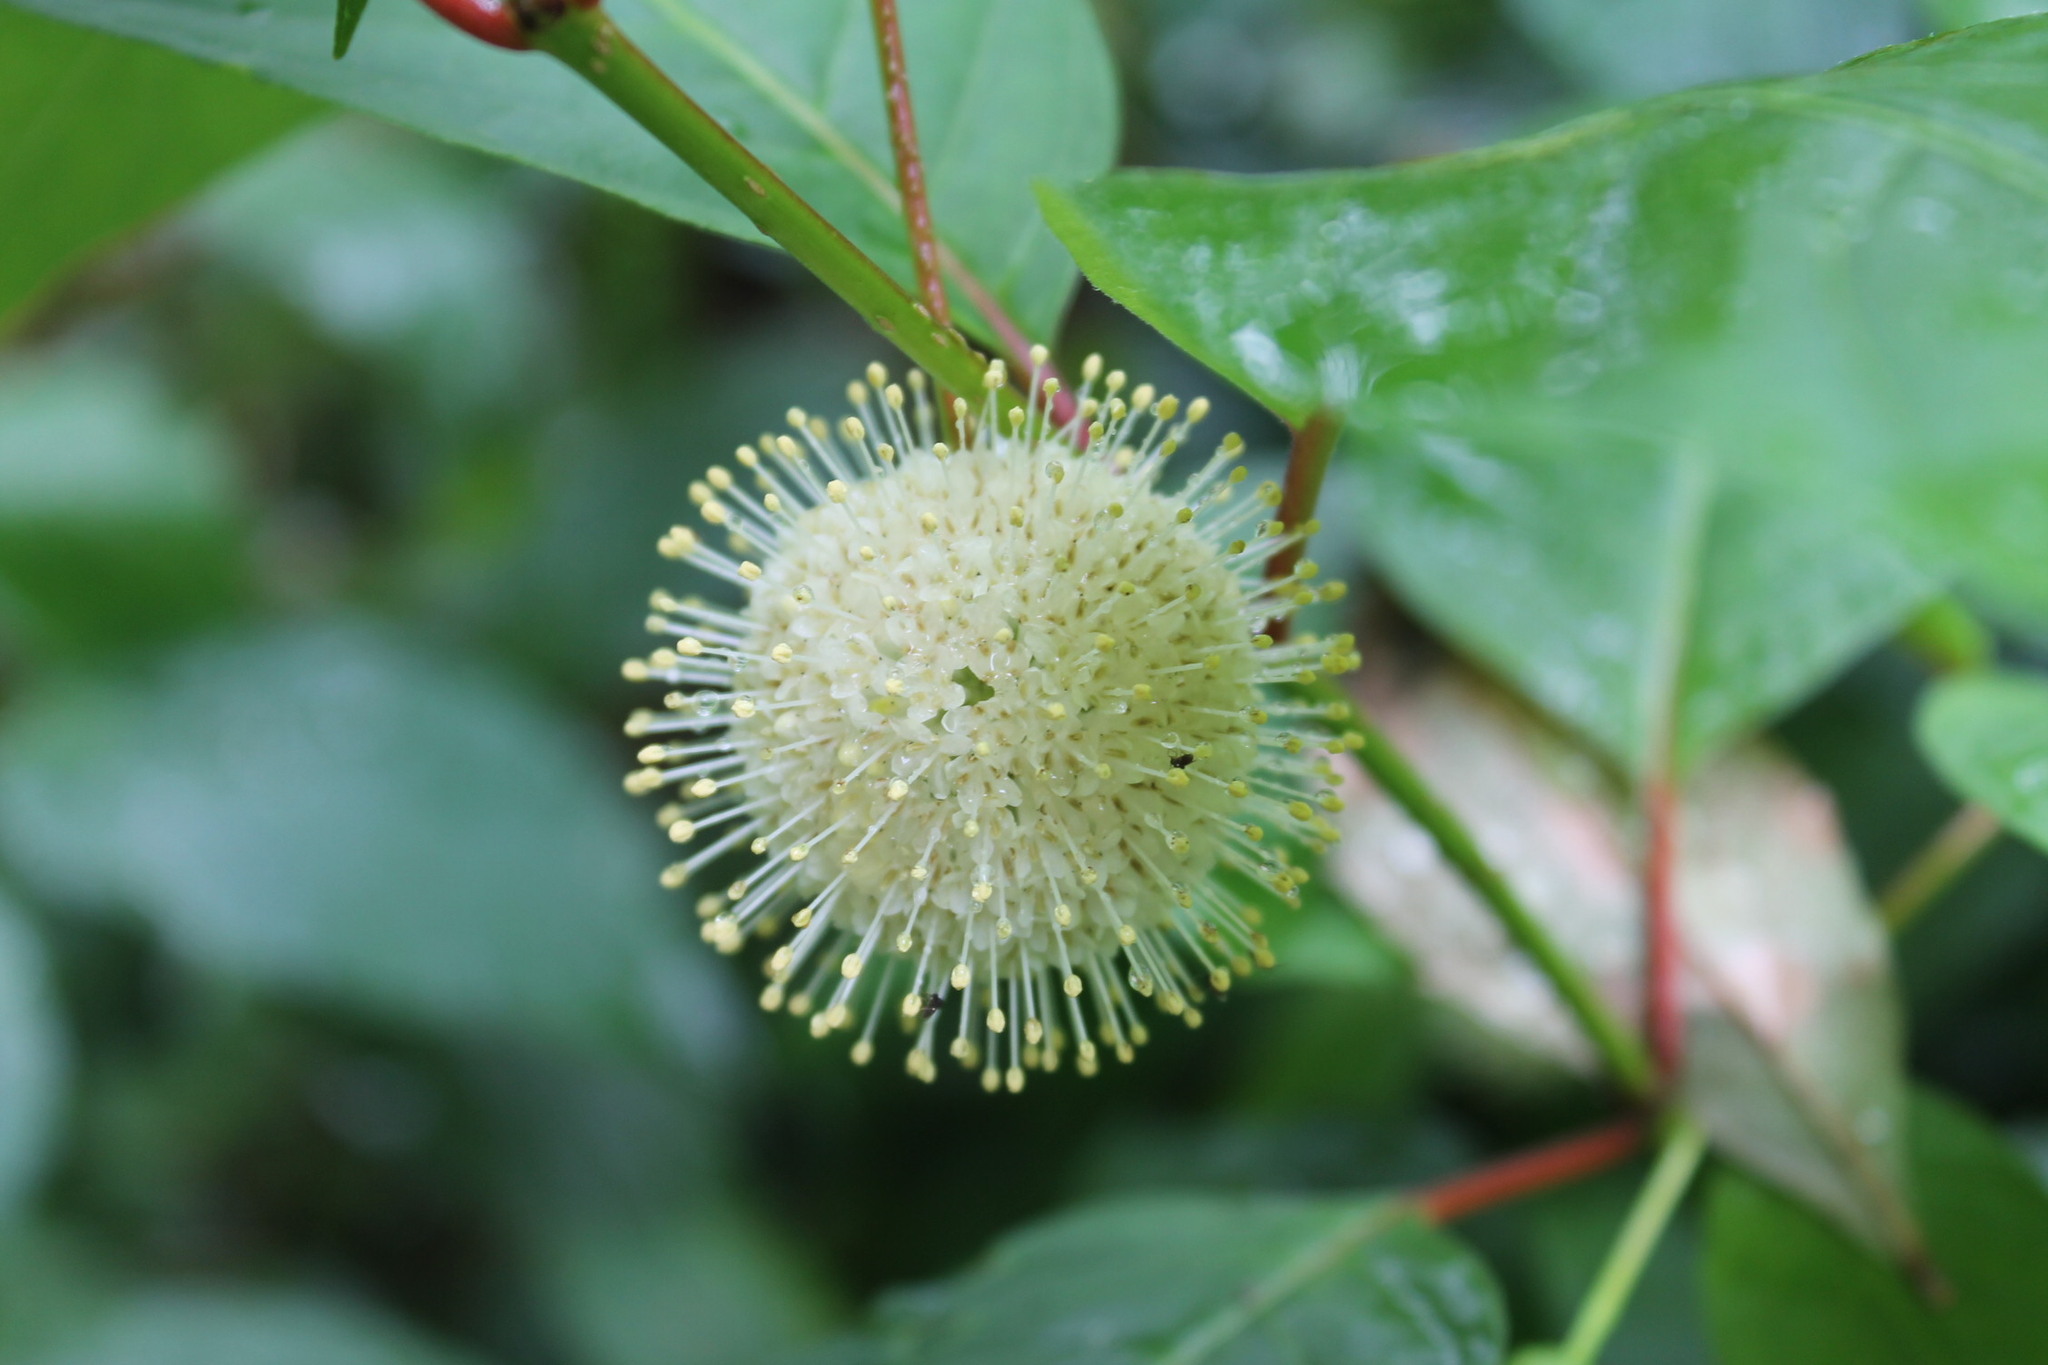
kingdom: Plantae
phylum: Tracheophyta
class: Magnoliopsida
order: Gentianales
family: Rubiaceae
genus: Cephalanthus
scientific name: Cephalanthus occidentalis
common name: Button-willow
